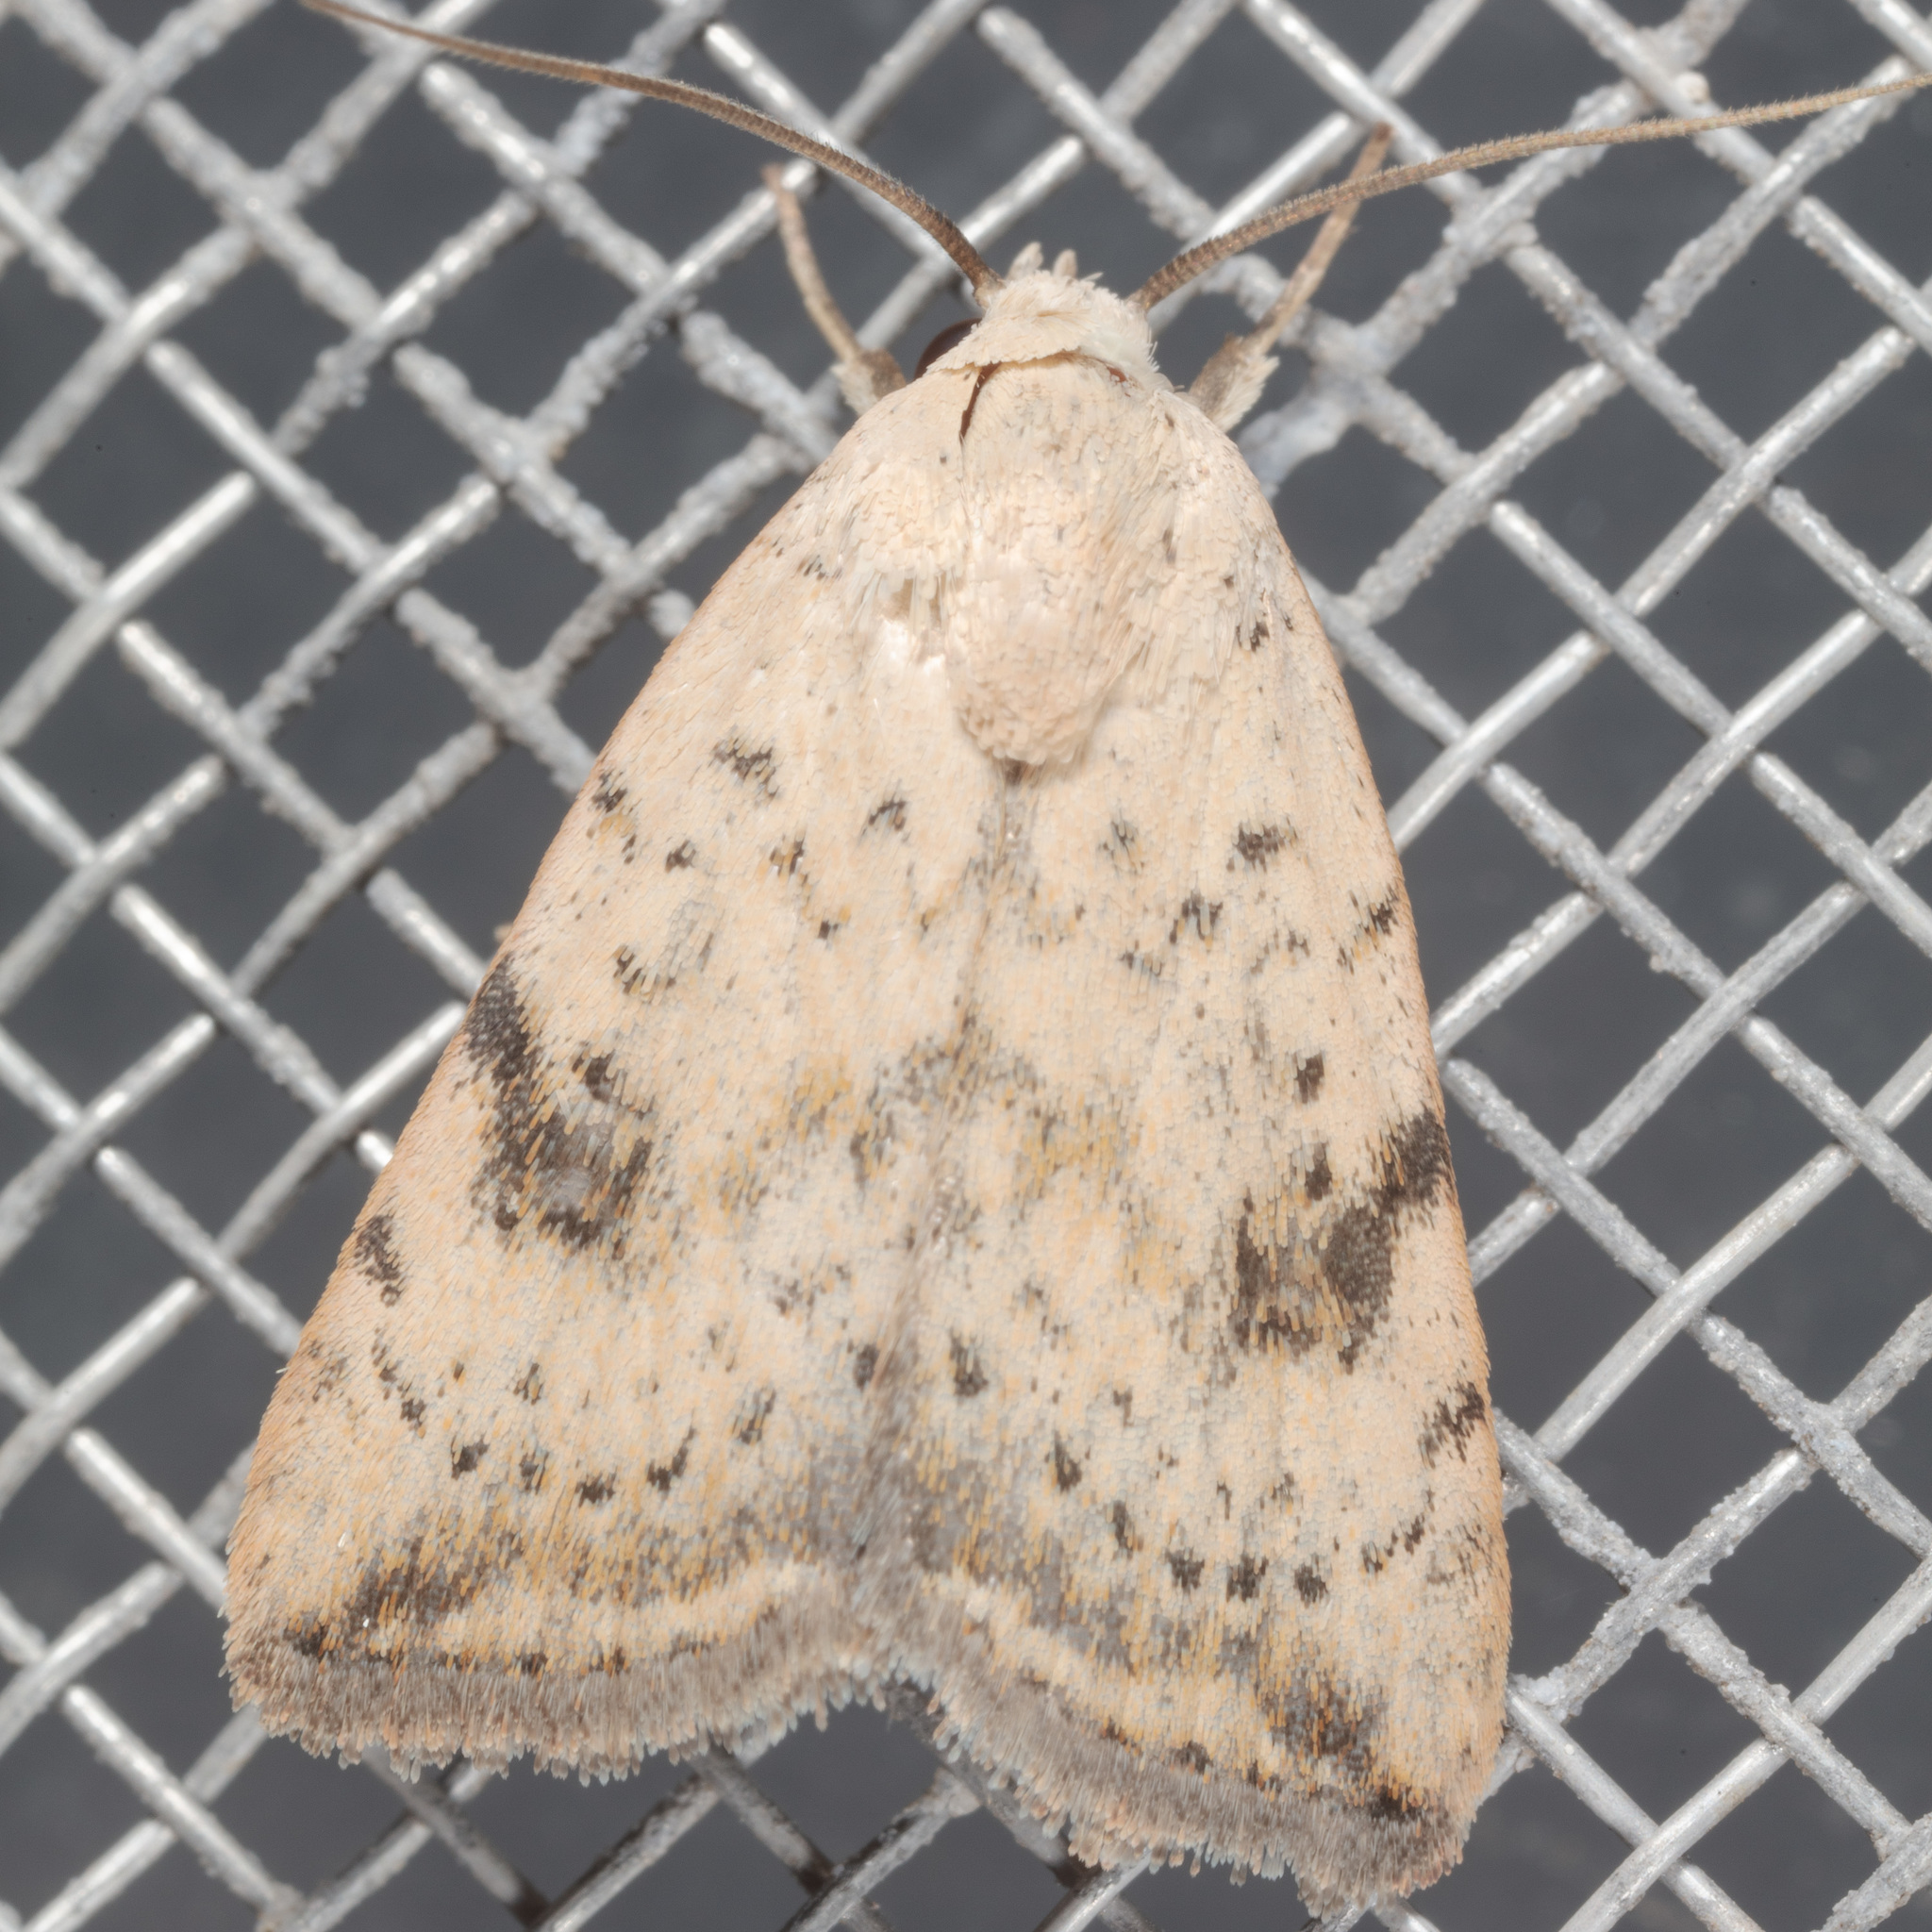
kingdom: Animalia
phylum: Arthropoda
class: Insecta
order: Lepidoptera
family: Noctuidae
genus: Micrathetis
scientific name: Micrathetis triplex
